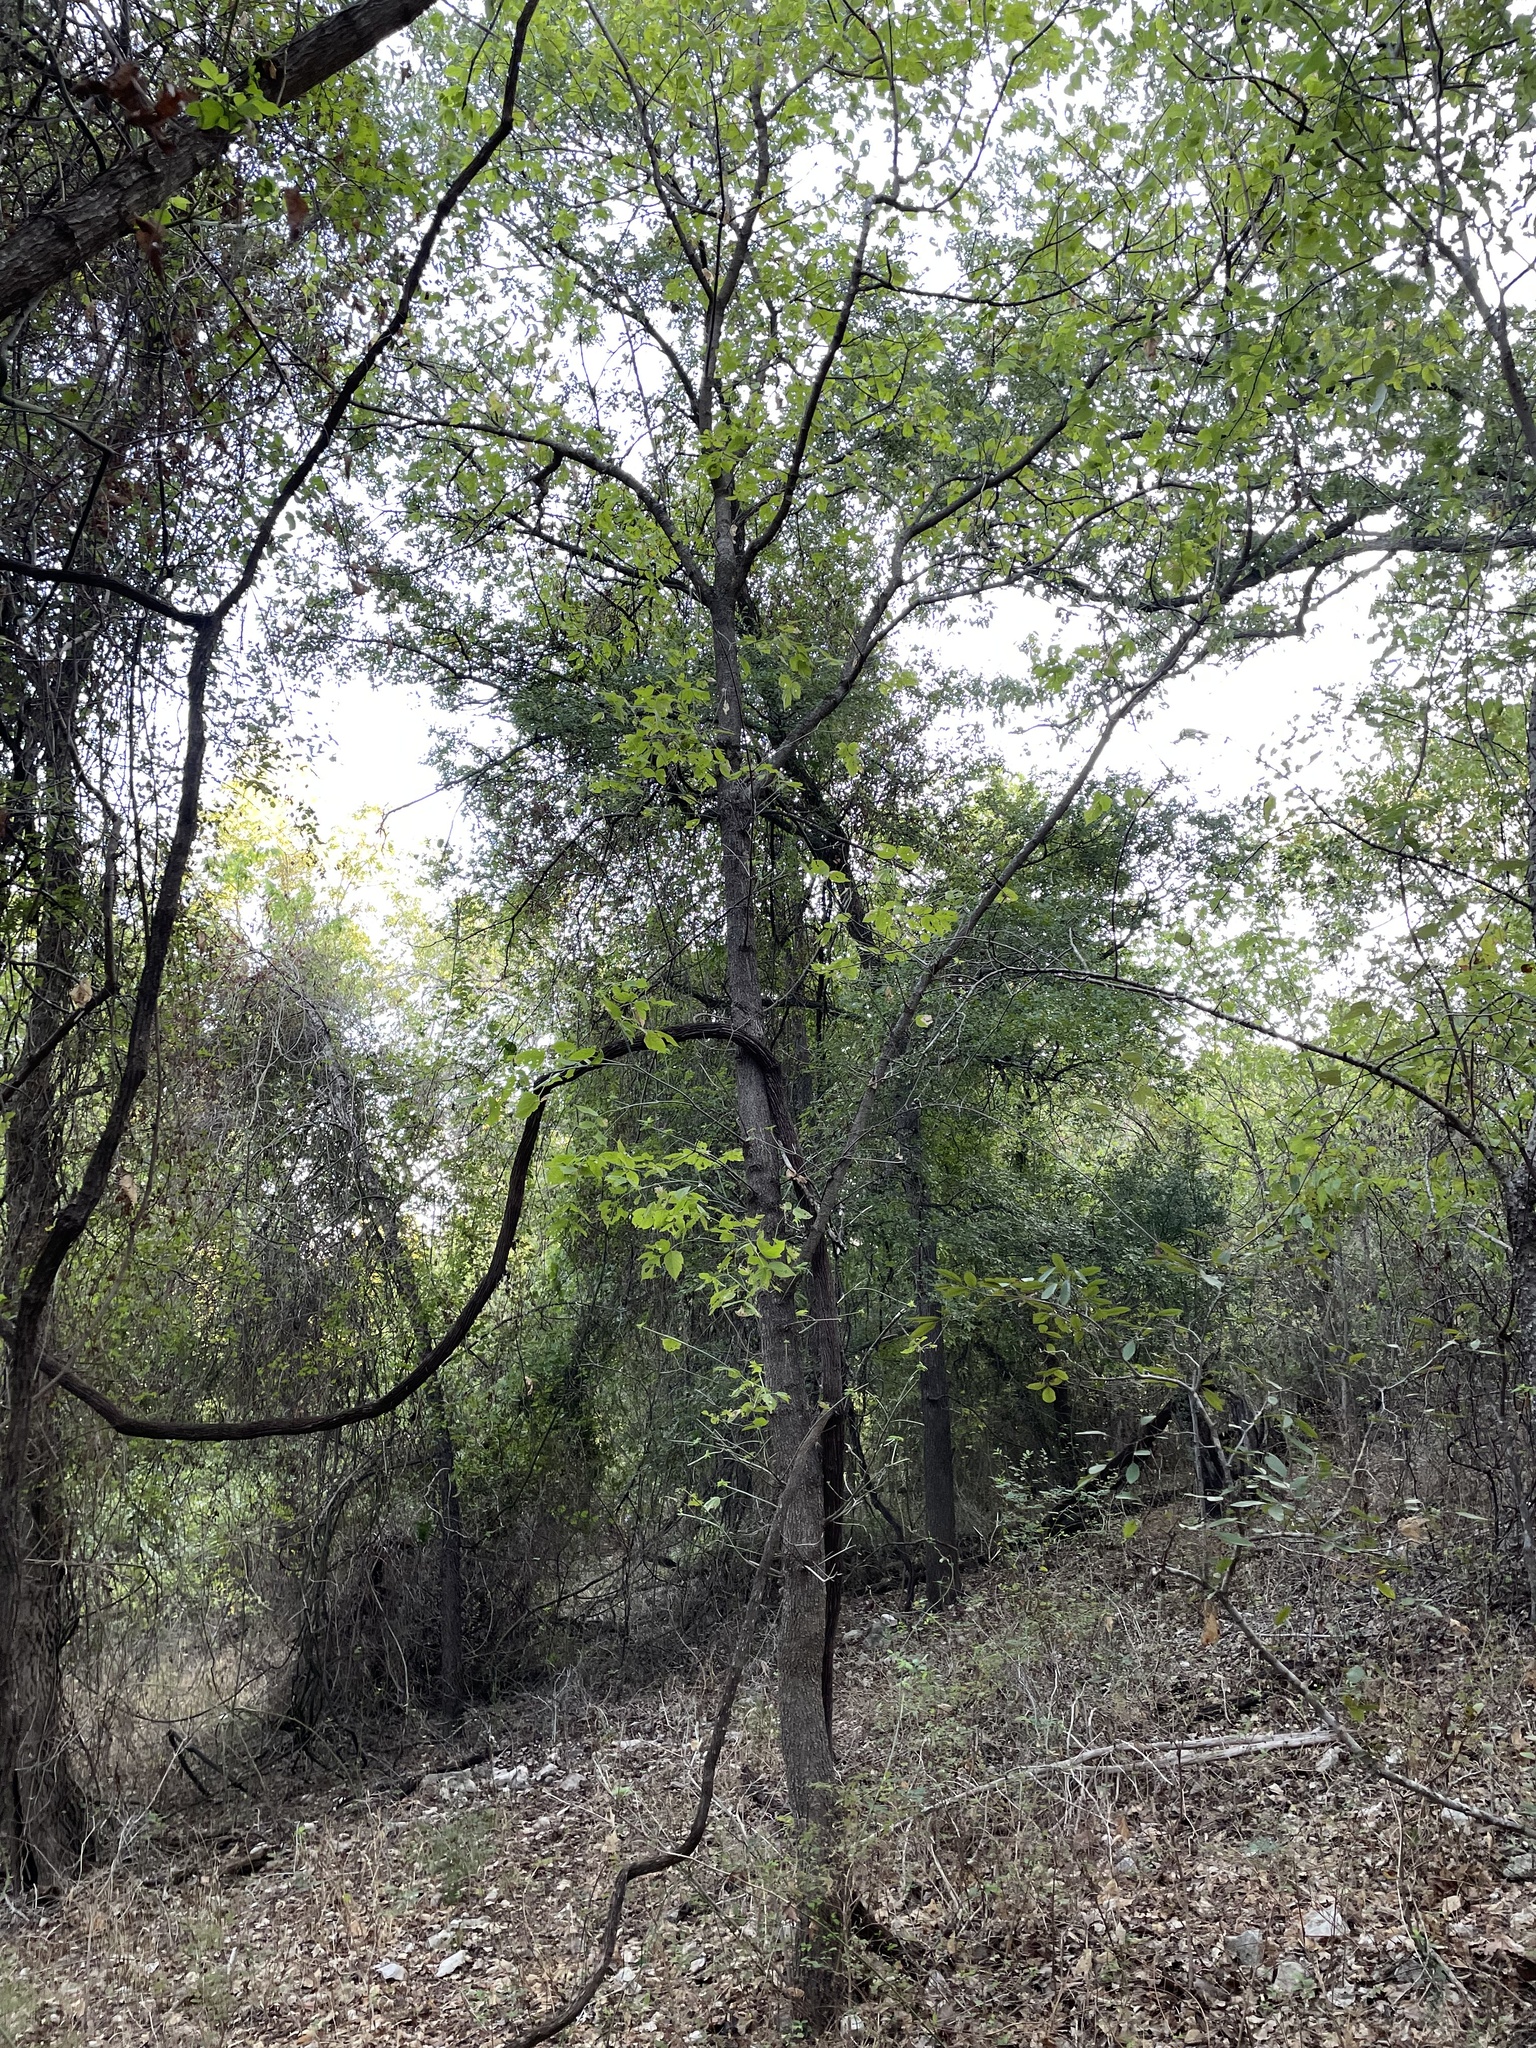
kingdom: Plantae
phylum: Tracheophyta
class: Magnoliopsida
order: Sapindales
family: Sapindaceae
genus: Acer
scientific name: Acer negundo
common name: Ashleaf maple
